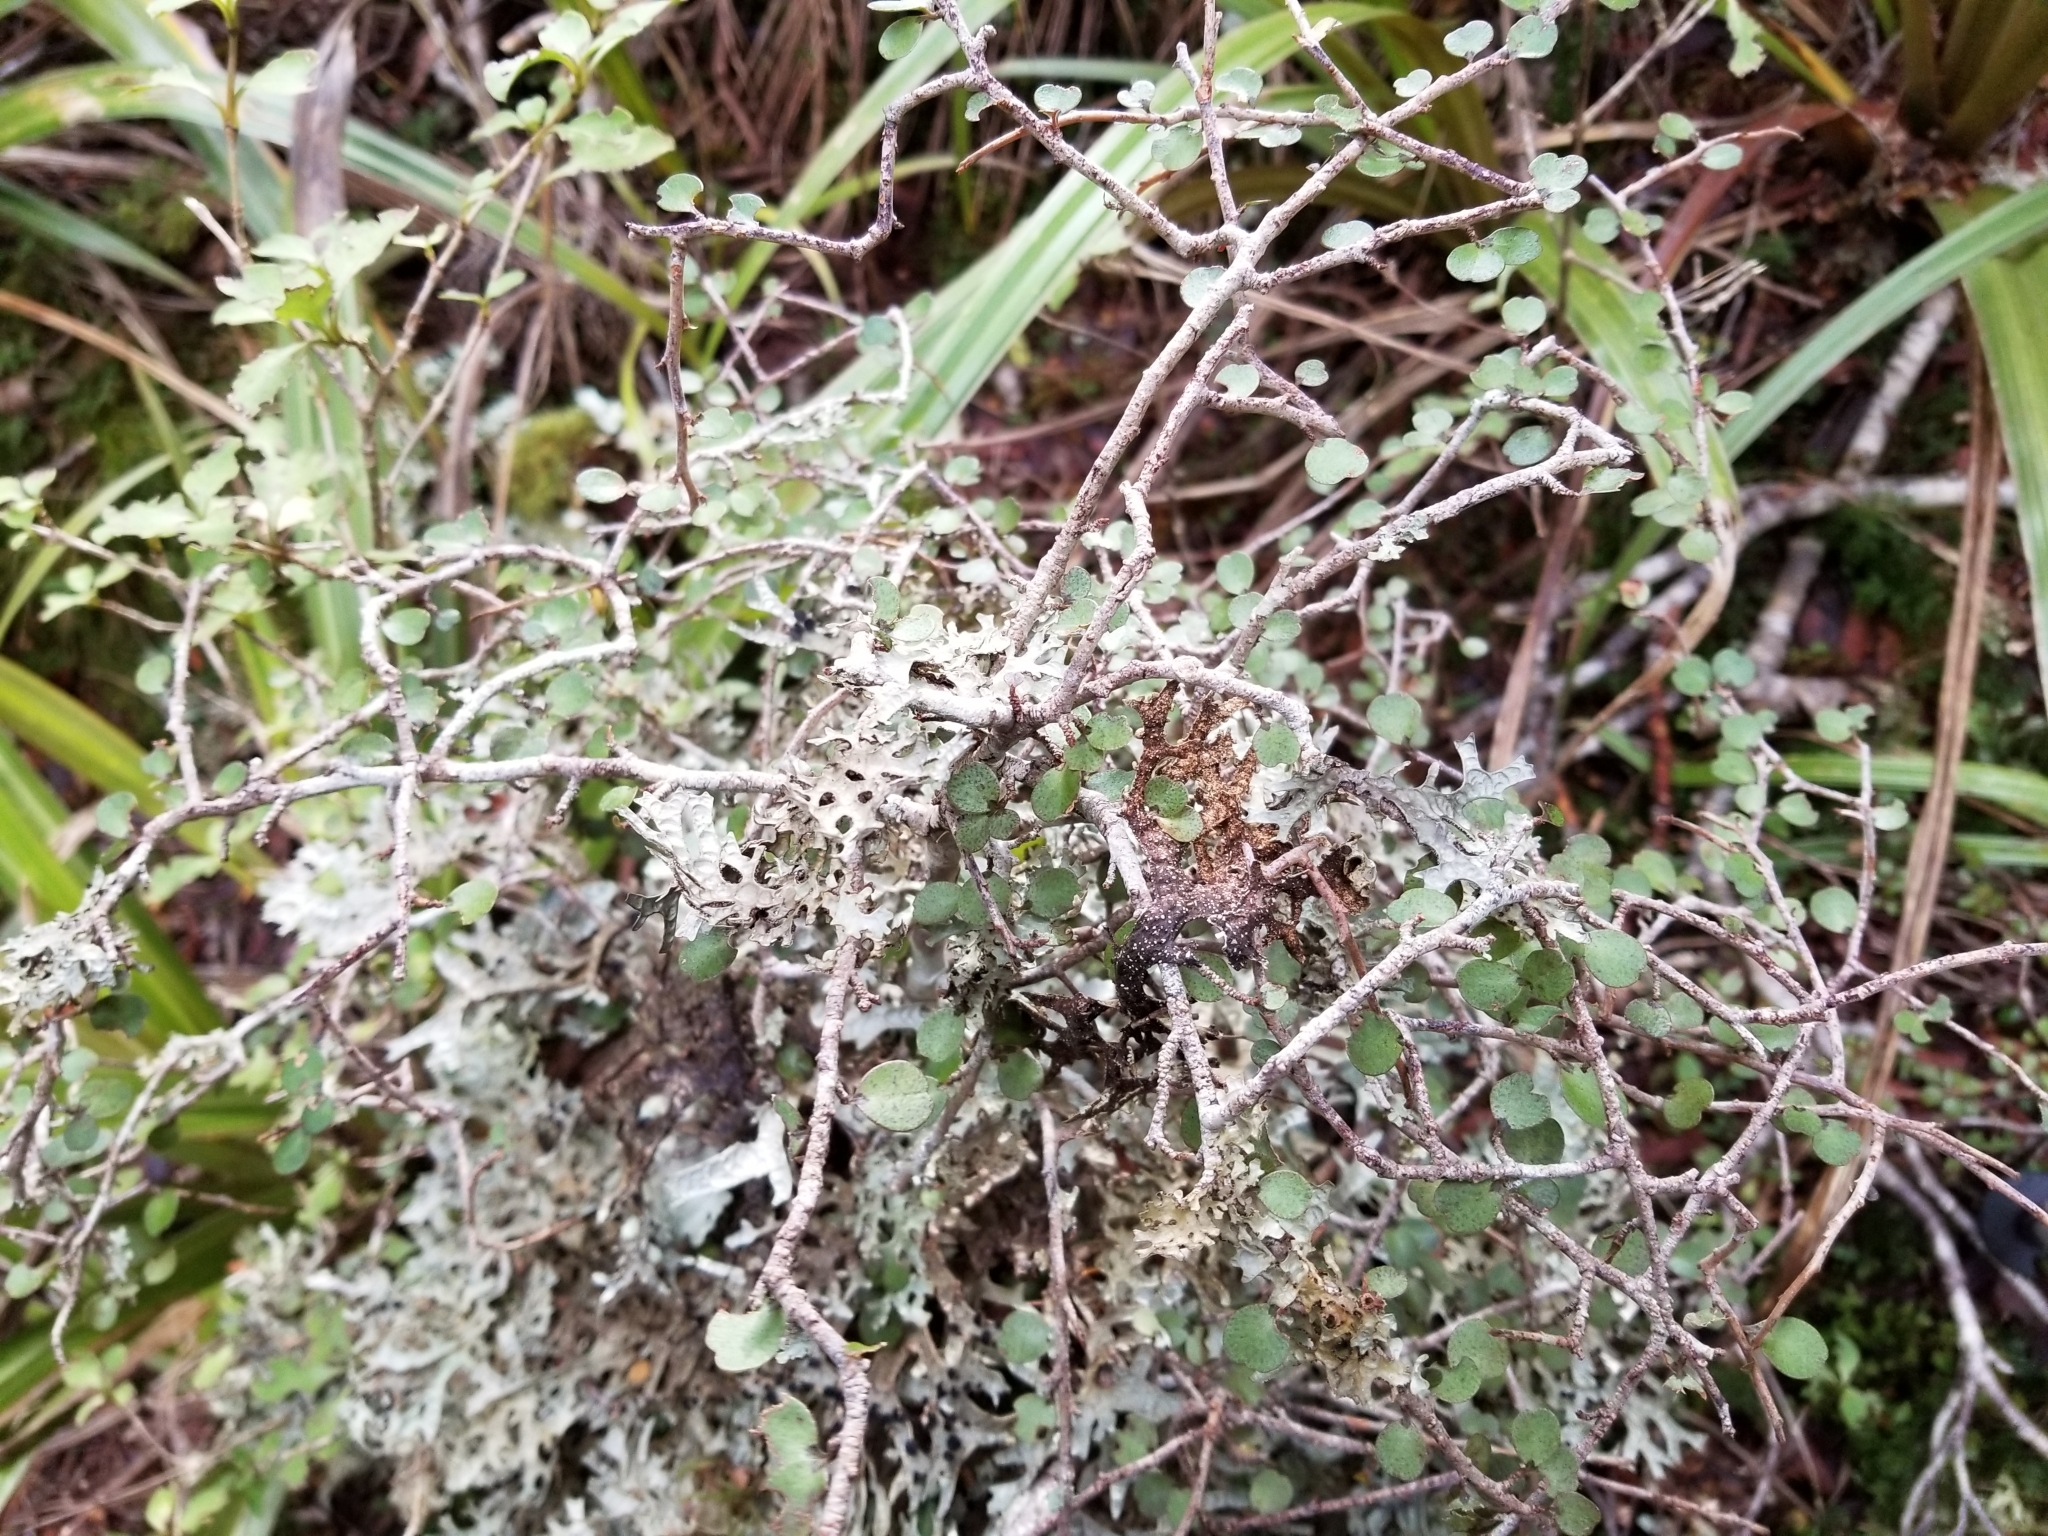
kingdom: Plantae
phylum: Tracheophyta
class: Magnoliopsida
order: Ericales
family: Primulaceae
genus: Myrsine
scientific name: Myrsine divaricata
